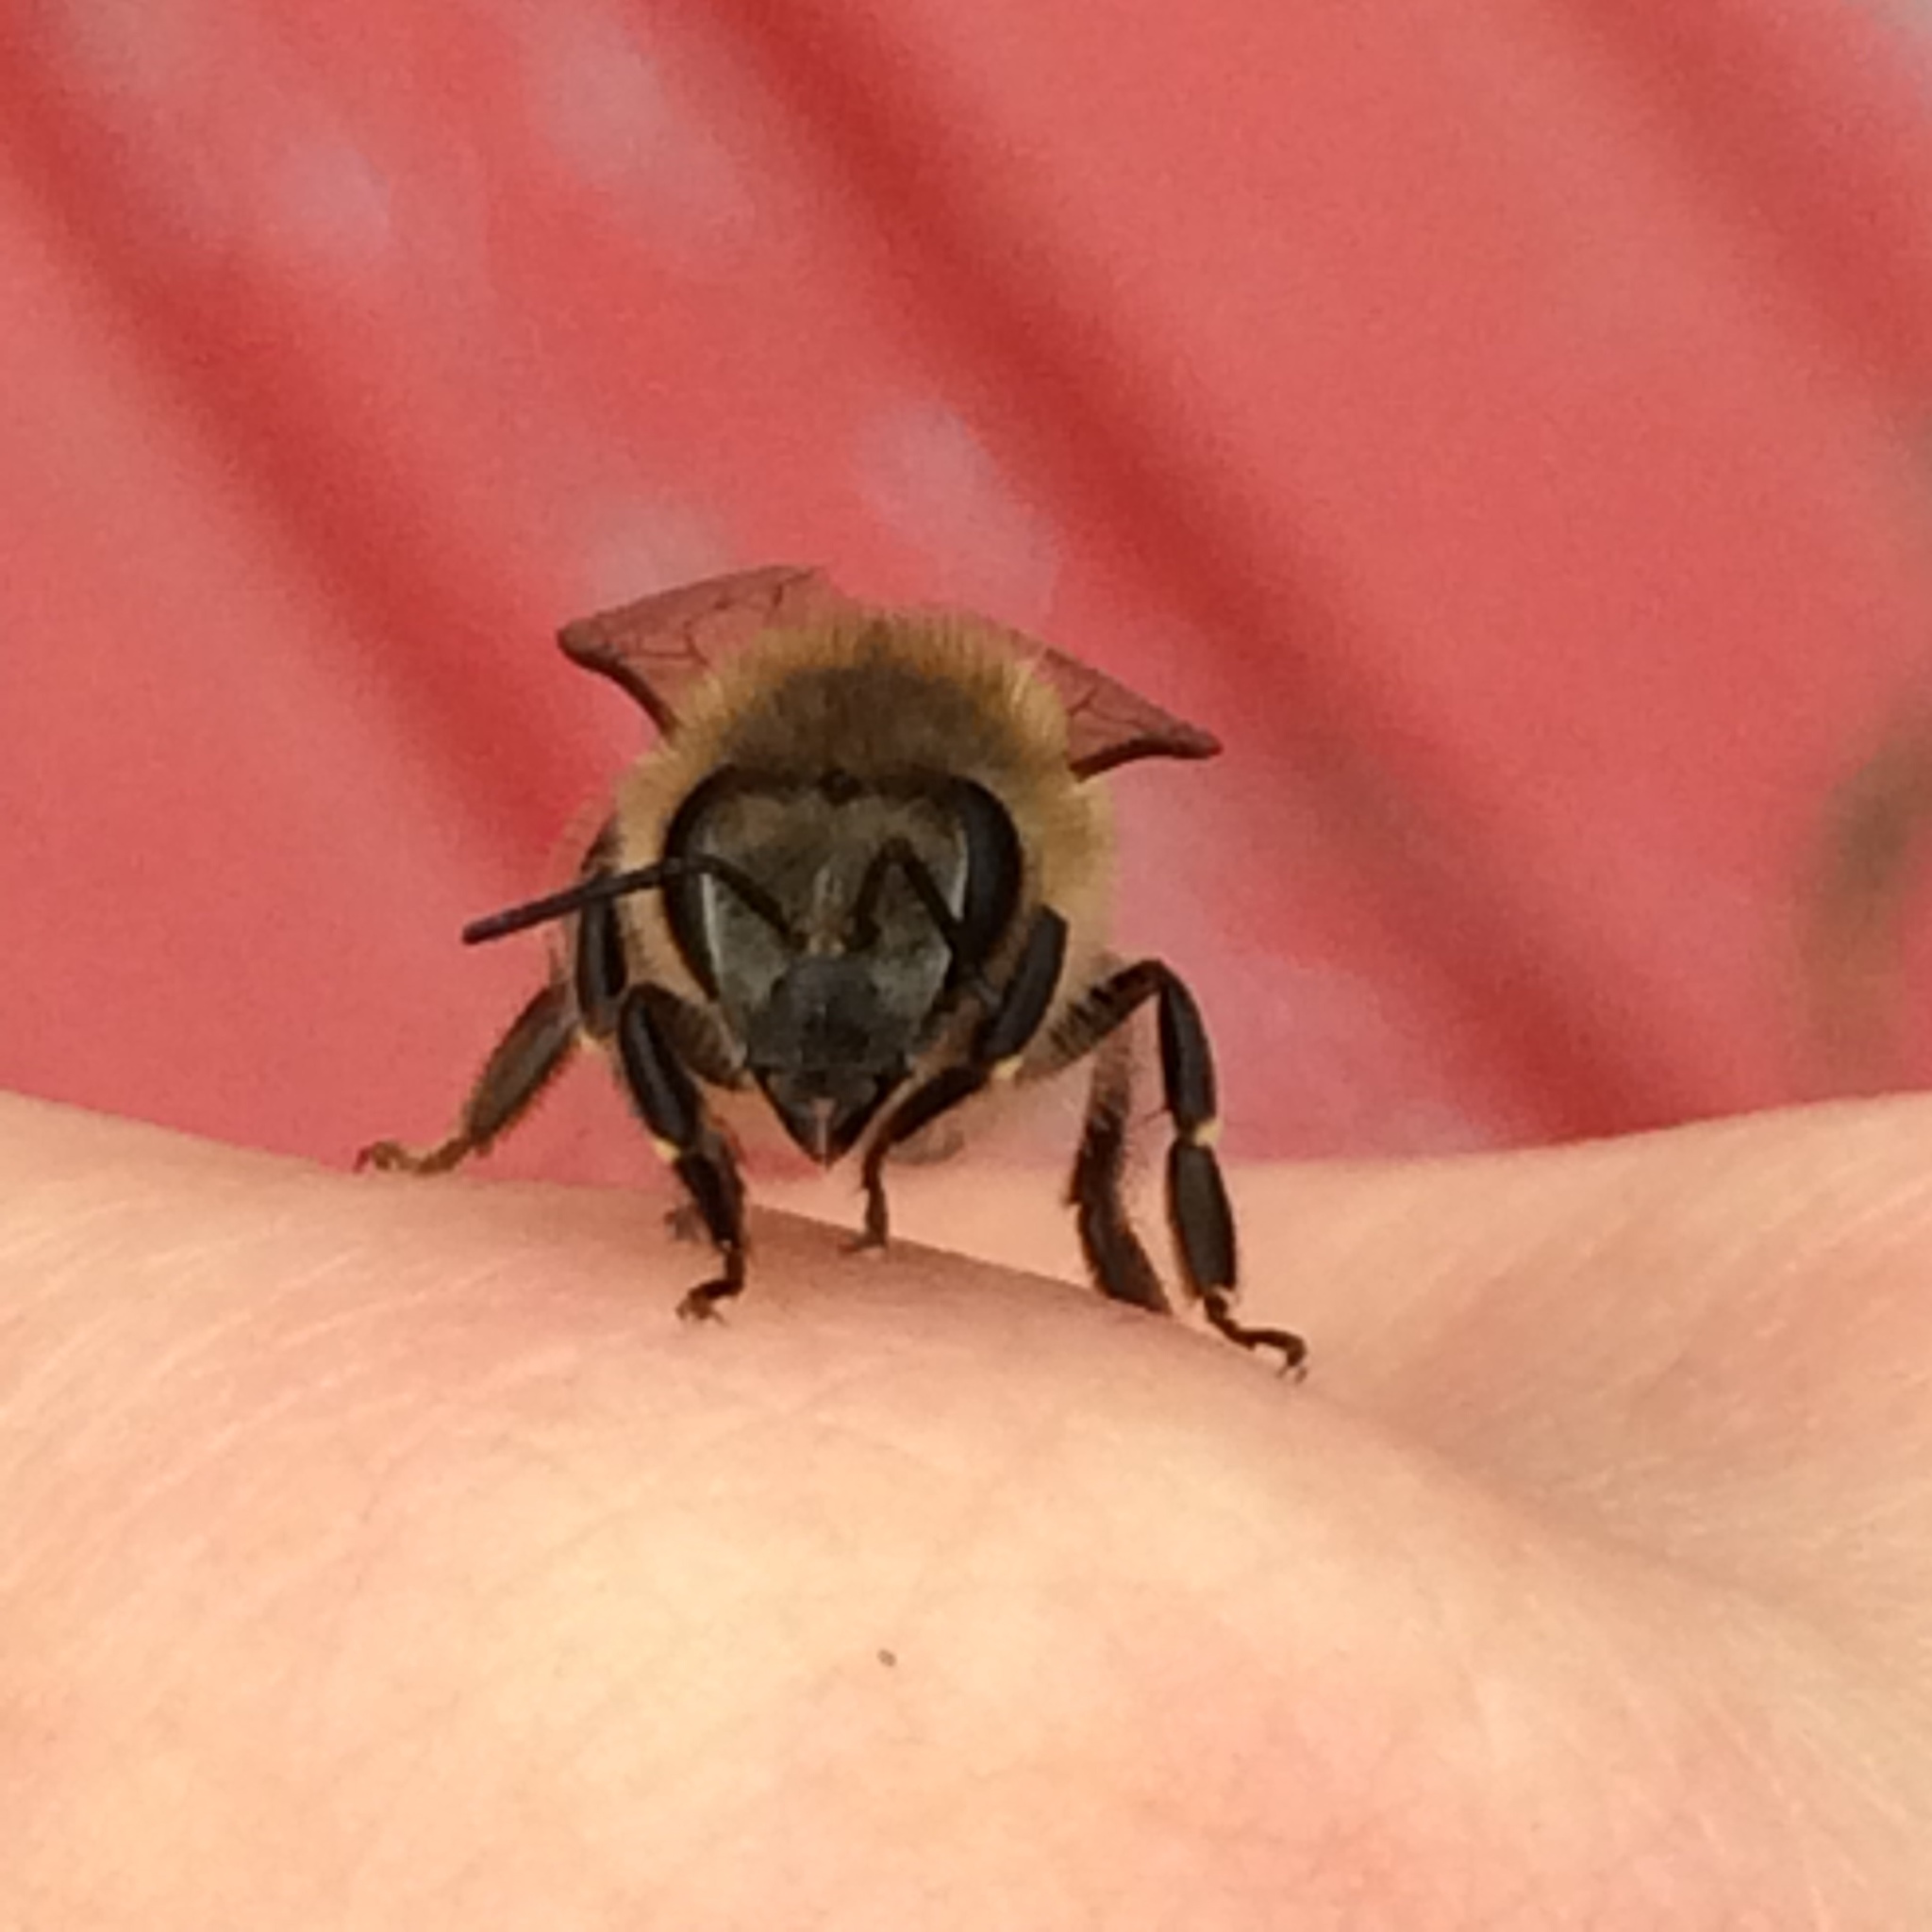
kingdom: Animalia
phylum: Arthropoda
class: Insecta
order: Hymenoptera
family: Apidae
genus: Apis
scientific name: Apis mellifera
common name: Honey bee
